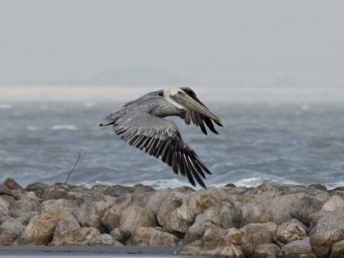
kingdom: Animalia
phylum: Chordata
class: Aves
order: Pelecaniformes
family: Pelecanidae
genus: Pelecanus
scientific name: Pelecanus occidentalis
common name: Brown pelican
